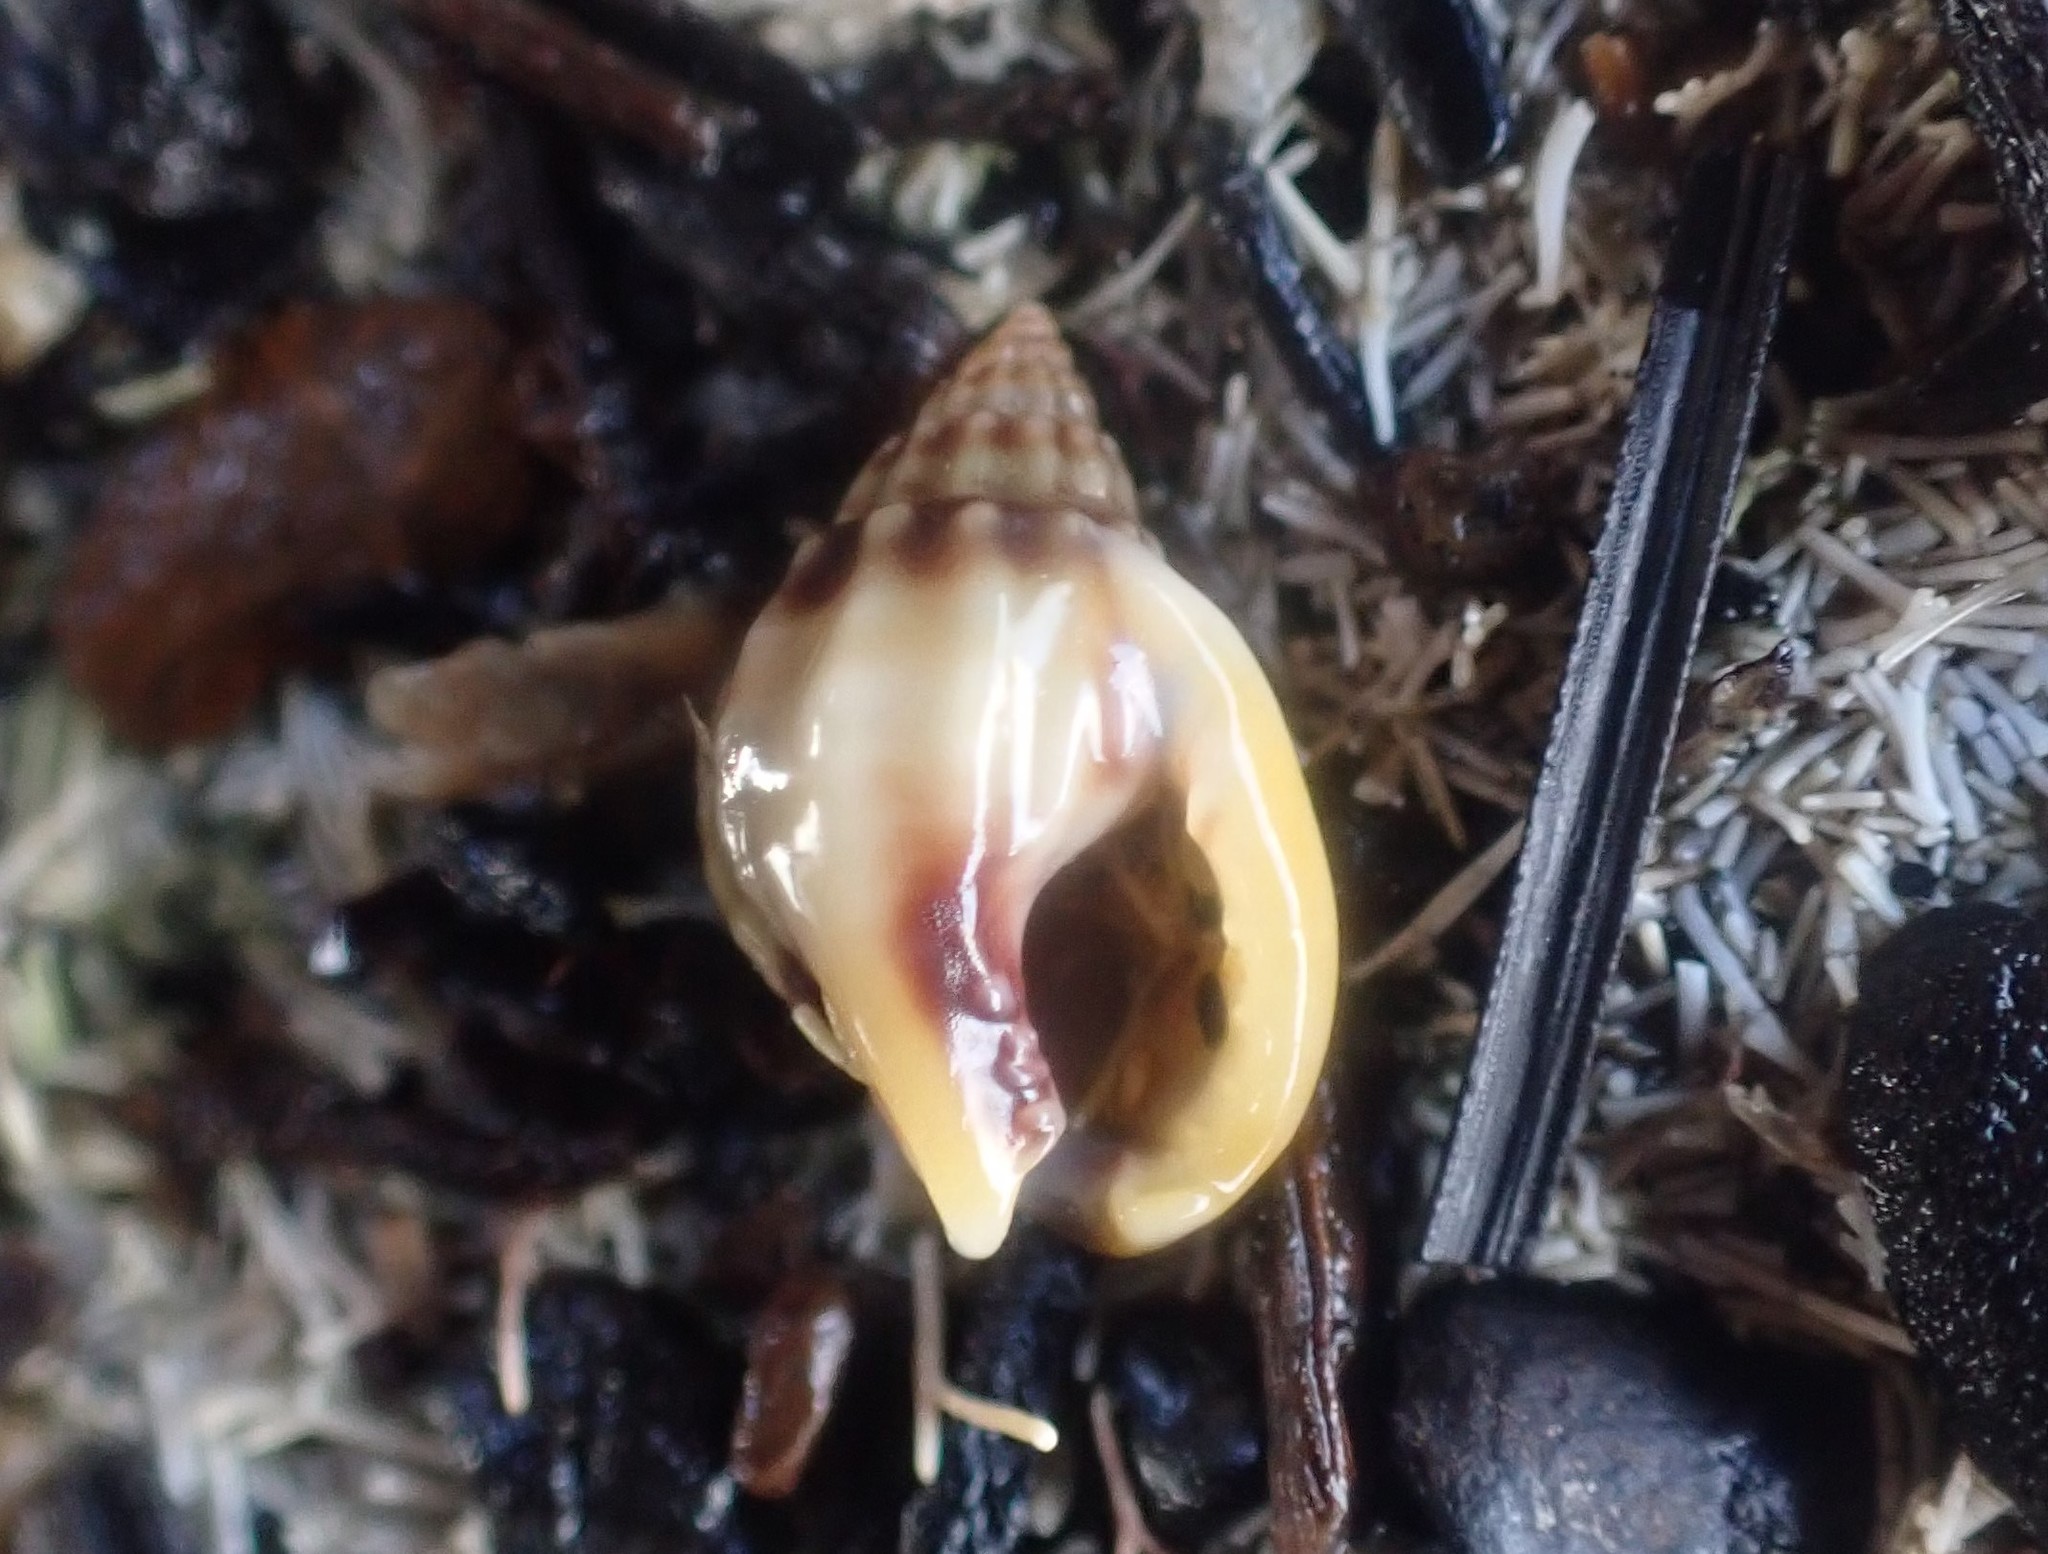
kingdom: Animalia
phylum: Mollusca
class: Gastropoda
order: Neogastropoda
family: Nassariidae
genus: Tritia
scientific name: Tritia burchardi
